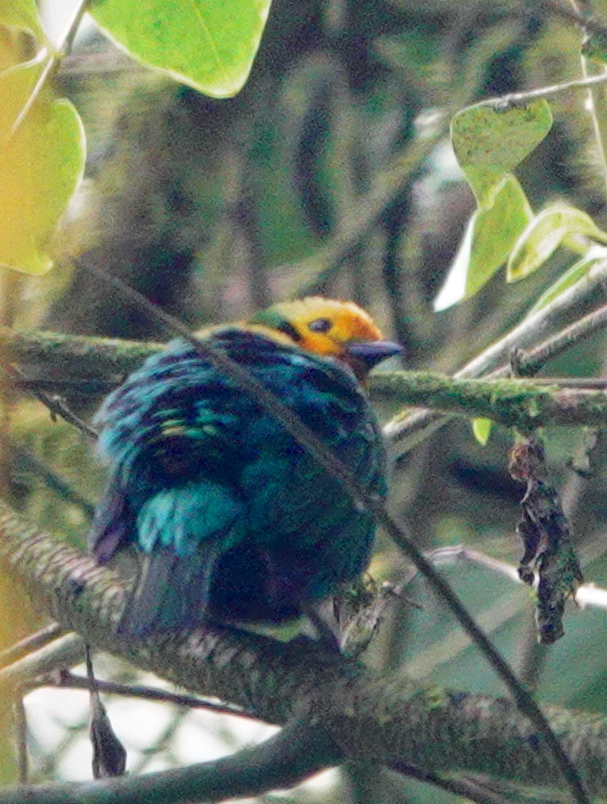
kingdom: Animalia
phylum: Chordata
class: Aves
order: Passeriformes
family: Thraupidae
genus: Chlorochrysa
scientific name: Chlorochrysa nitidissima
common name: Multicolored tanager
